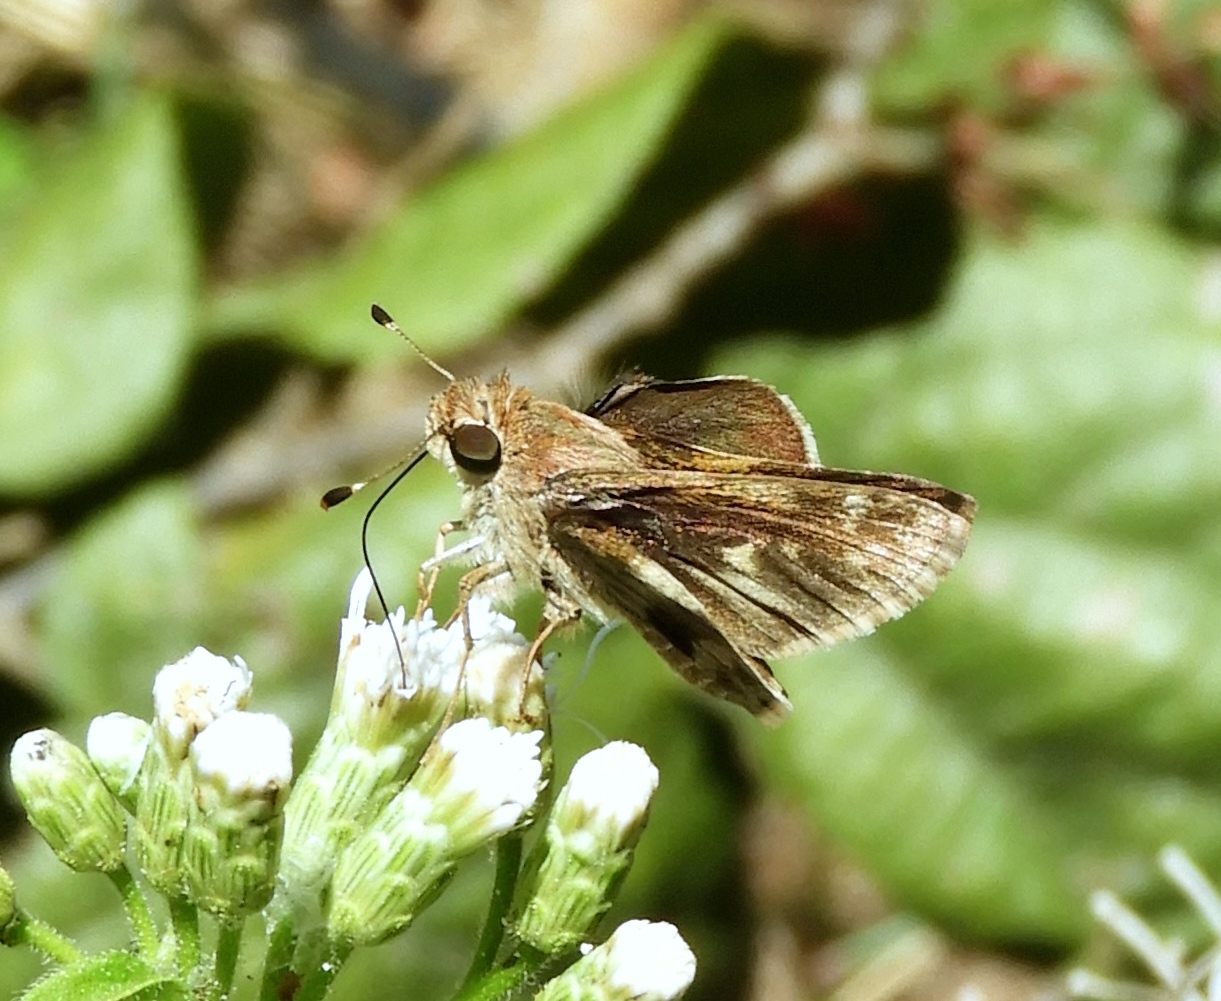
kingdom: Animalia
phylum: Arthropoda
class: Insecta
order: Lepidoptera
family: Hesperiidae
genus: Lerema
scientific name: Lerema accius
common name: Clouded skipper
